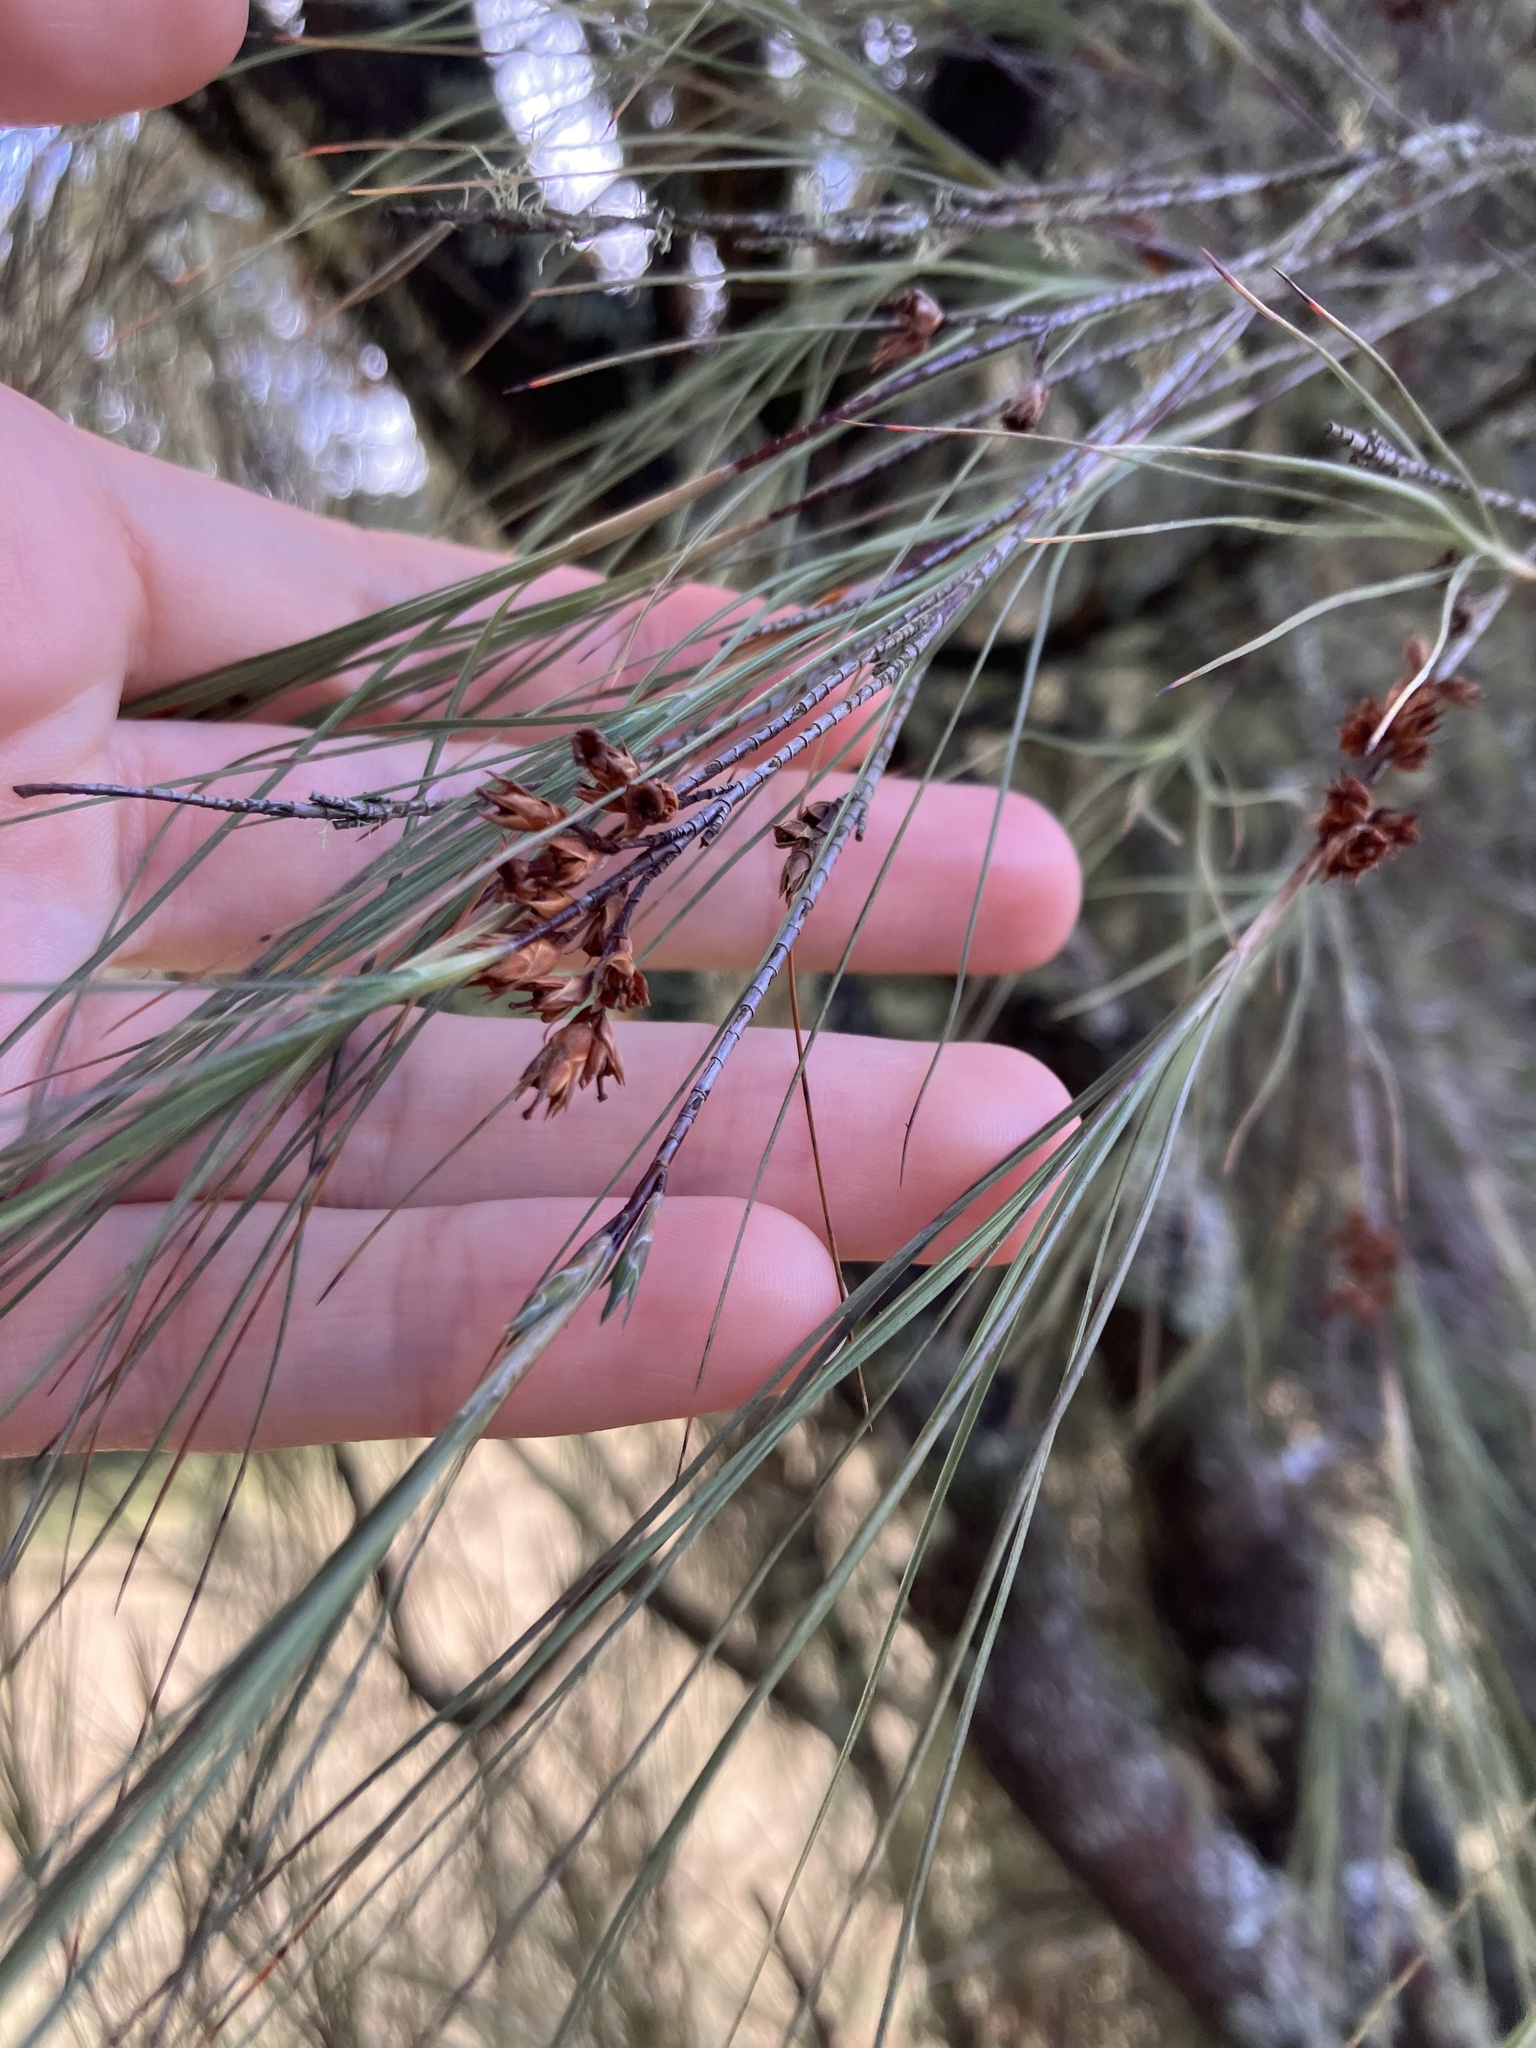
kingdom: Plantae
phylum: Tracheophyta
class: Magnoliopsida
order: Ericales
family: Ericaceae
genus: Dracophyllum
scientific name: Dracophyllum filifolium
